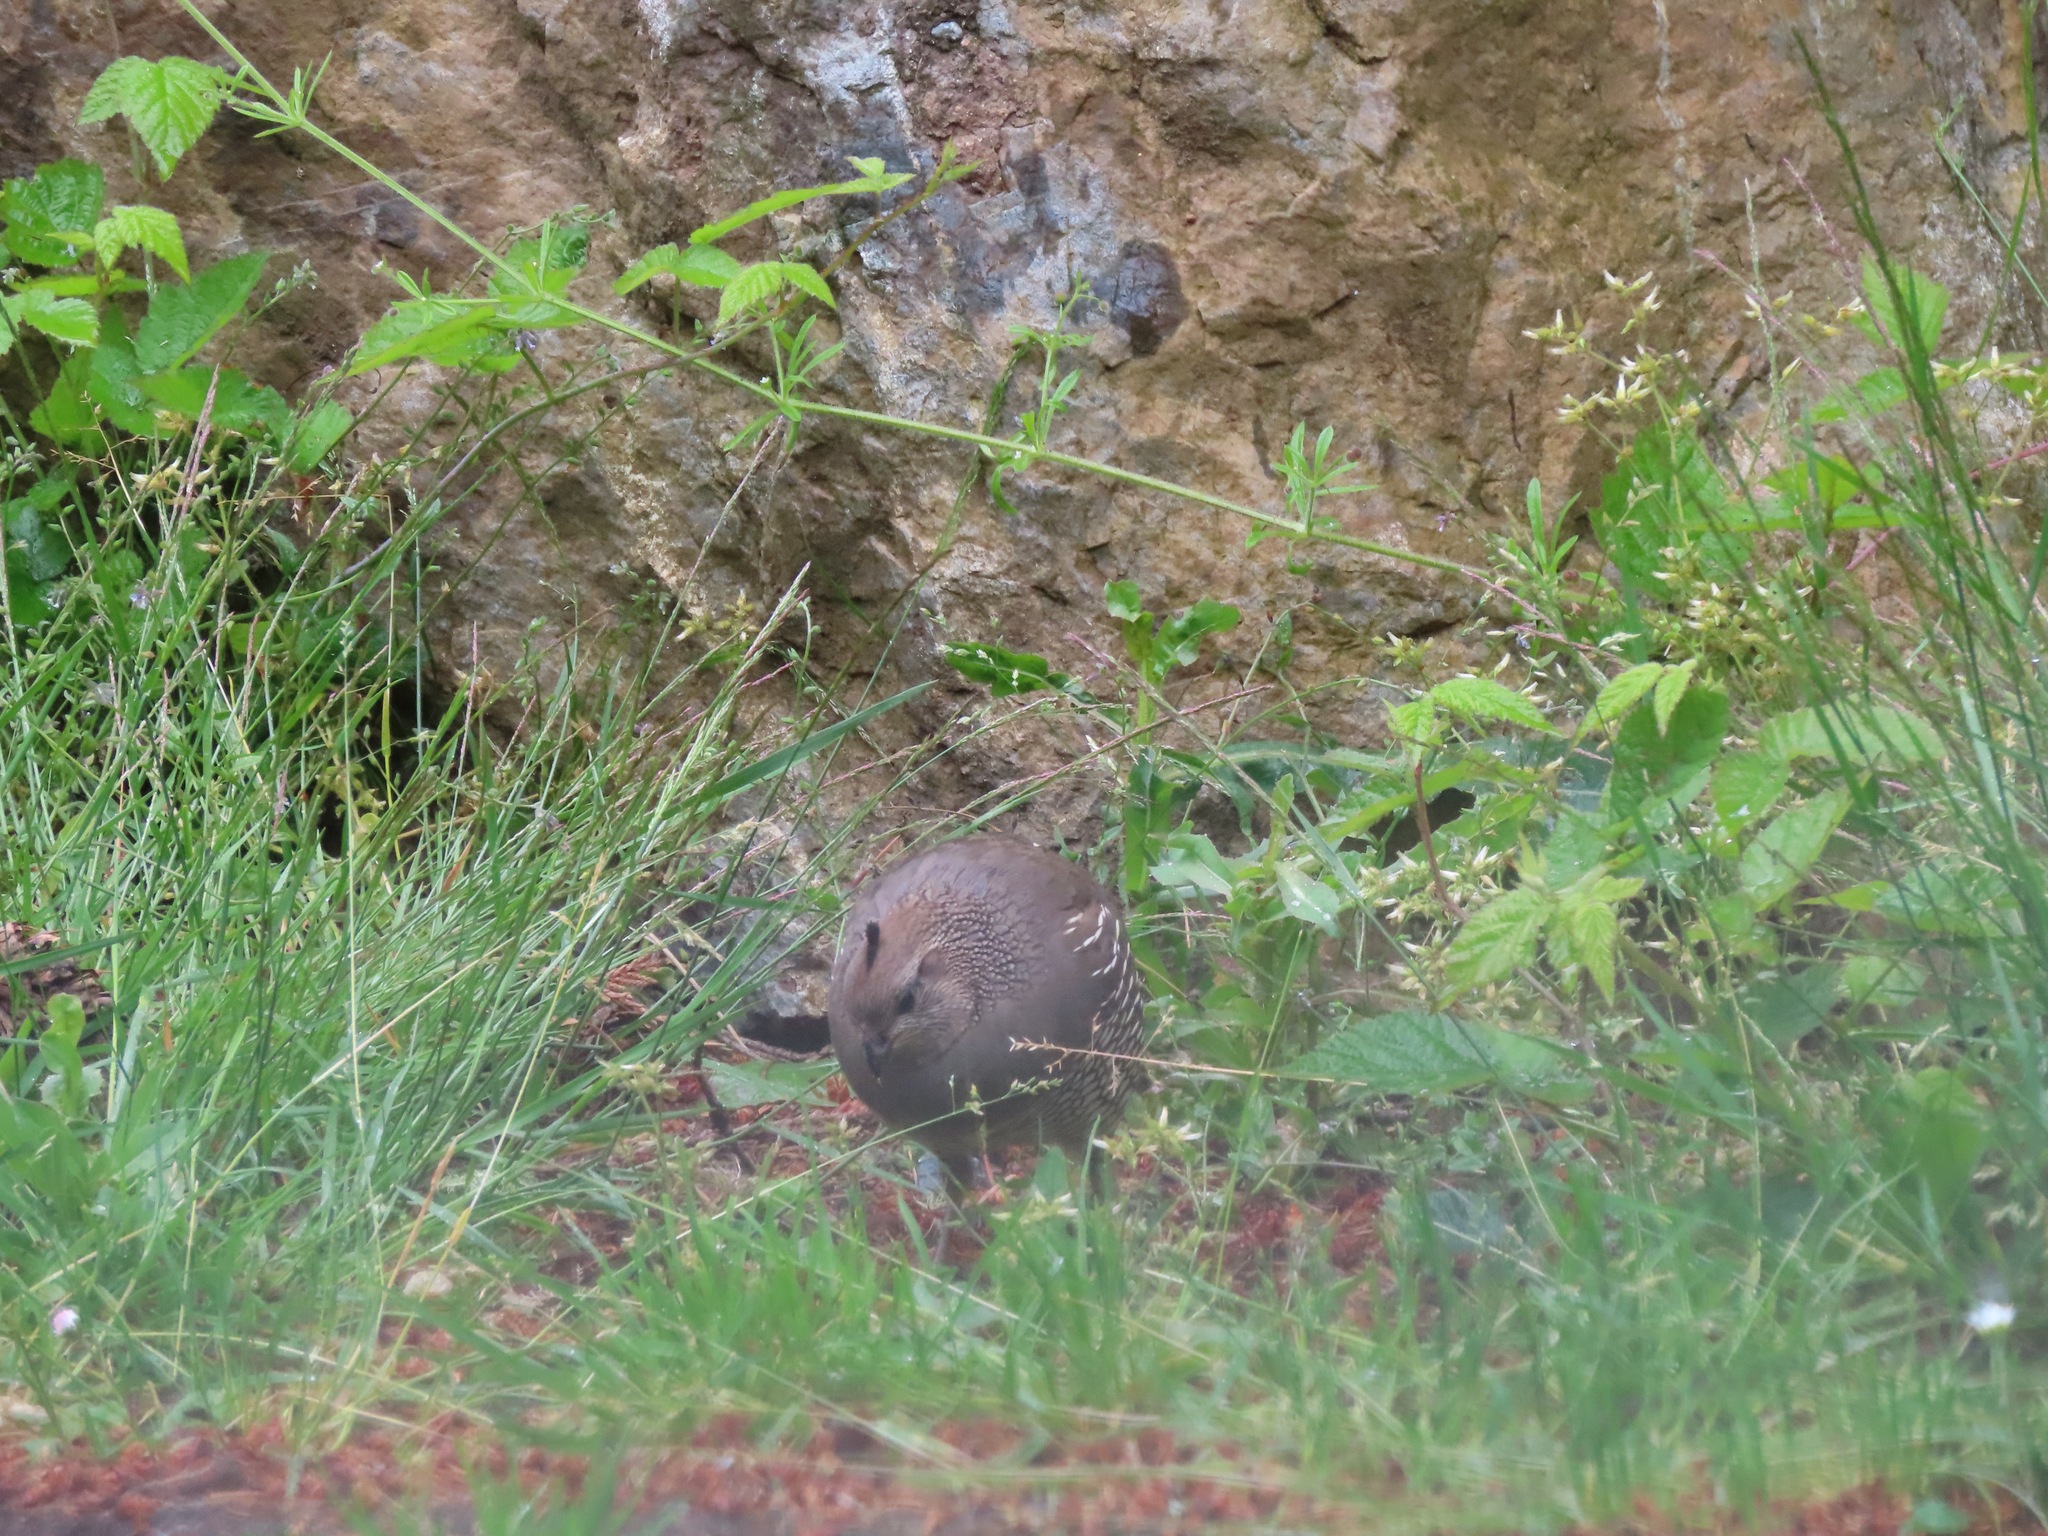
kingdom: Animalia
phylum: Chordata
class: Aves
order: Galliformes
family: Odontophoridae
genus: Callipepla
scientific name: Callipepla californica
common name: California quail
